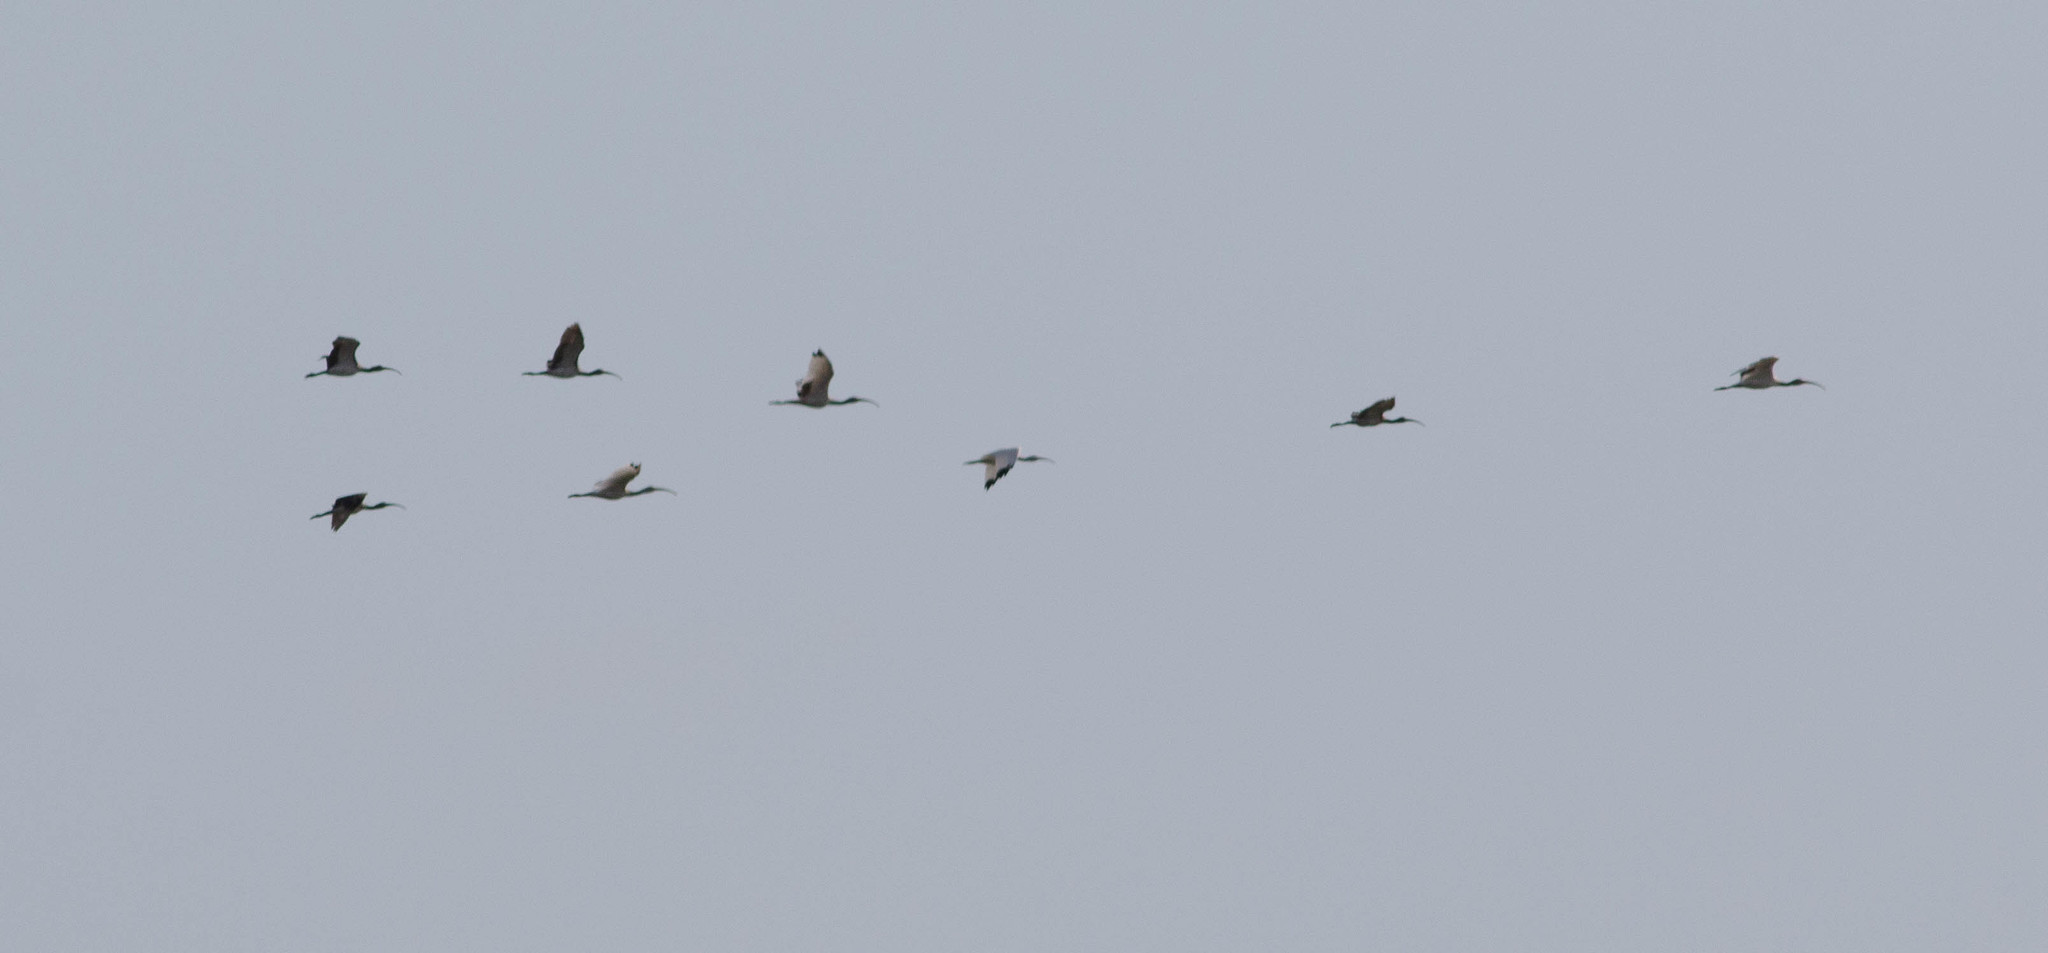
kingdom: Animalia
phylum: Chordata
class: Aves
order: Pelecaniformes
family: Threskiornithidae
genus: Eudocimus
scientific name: Eudocimus albus
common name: White ibis
